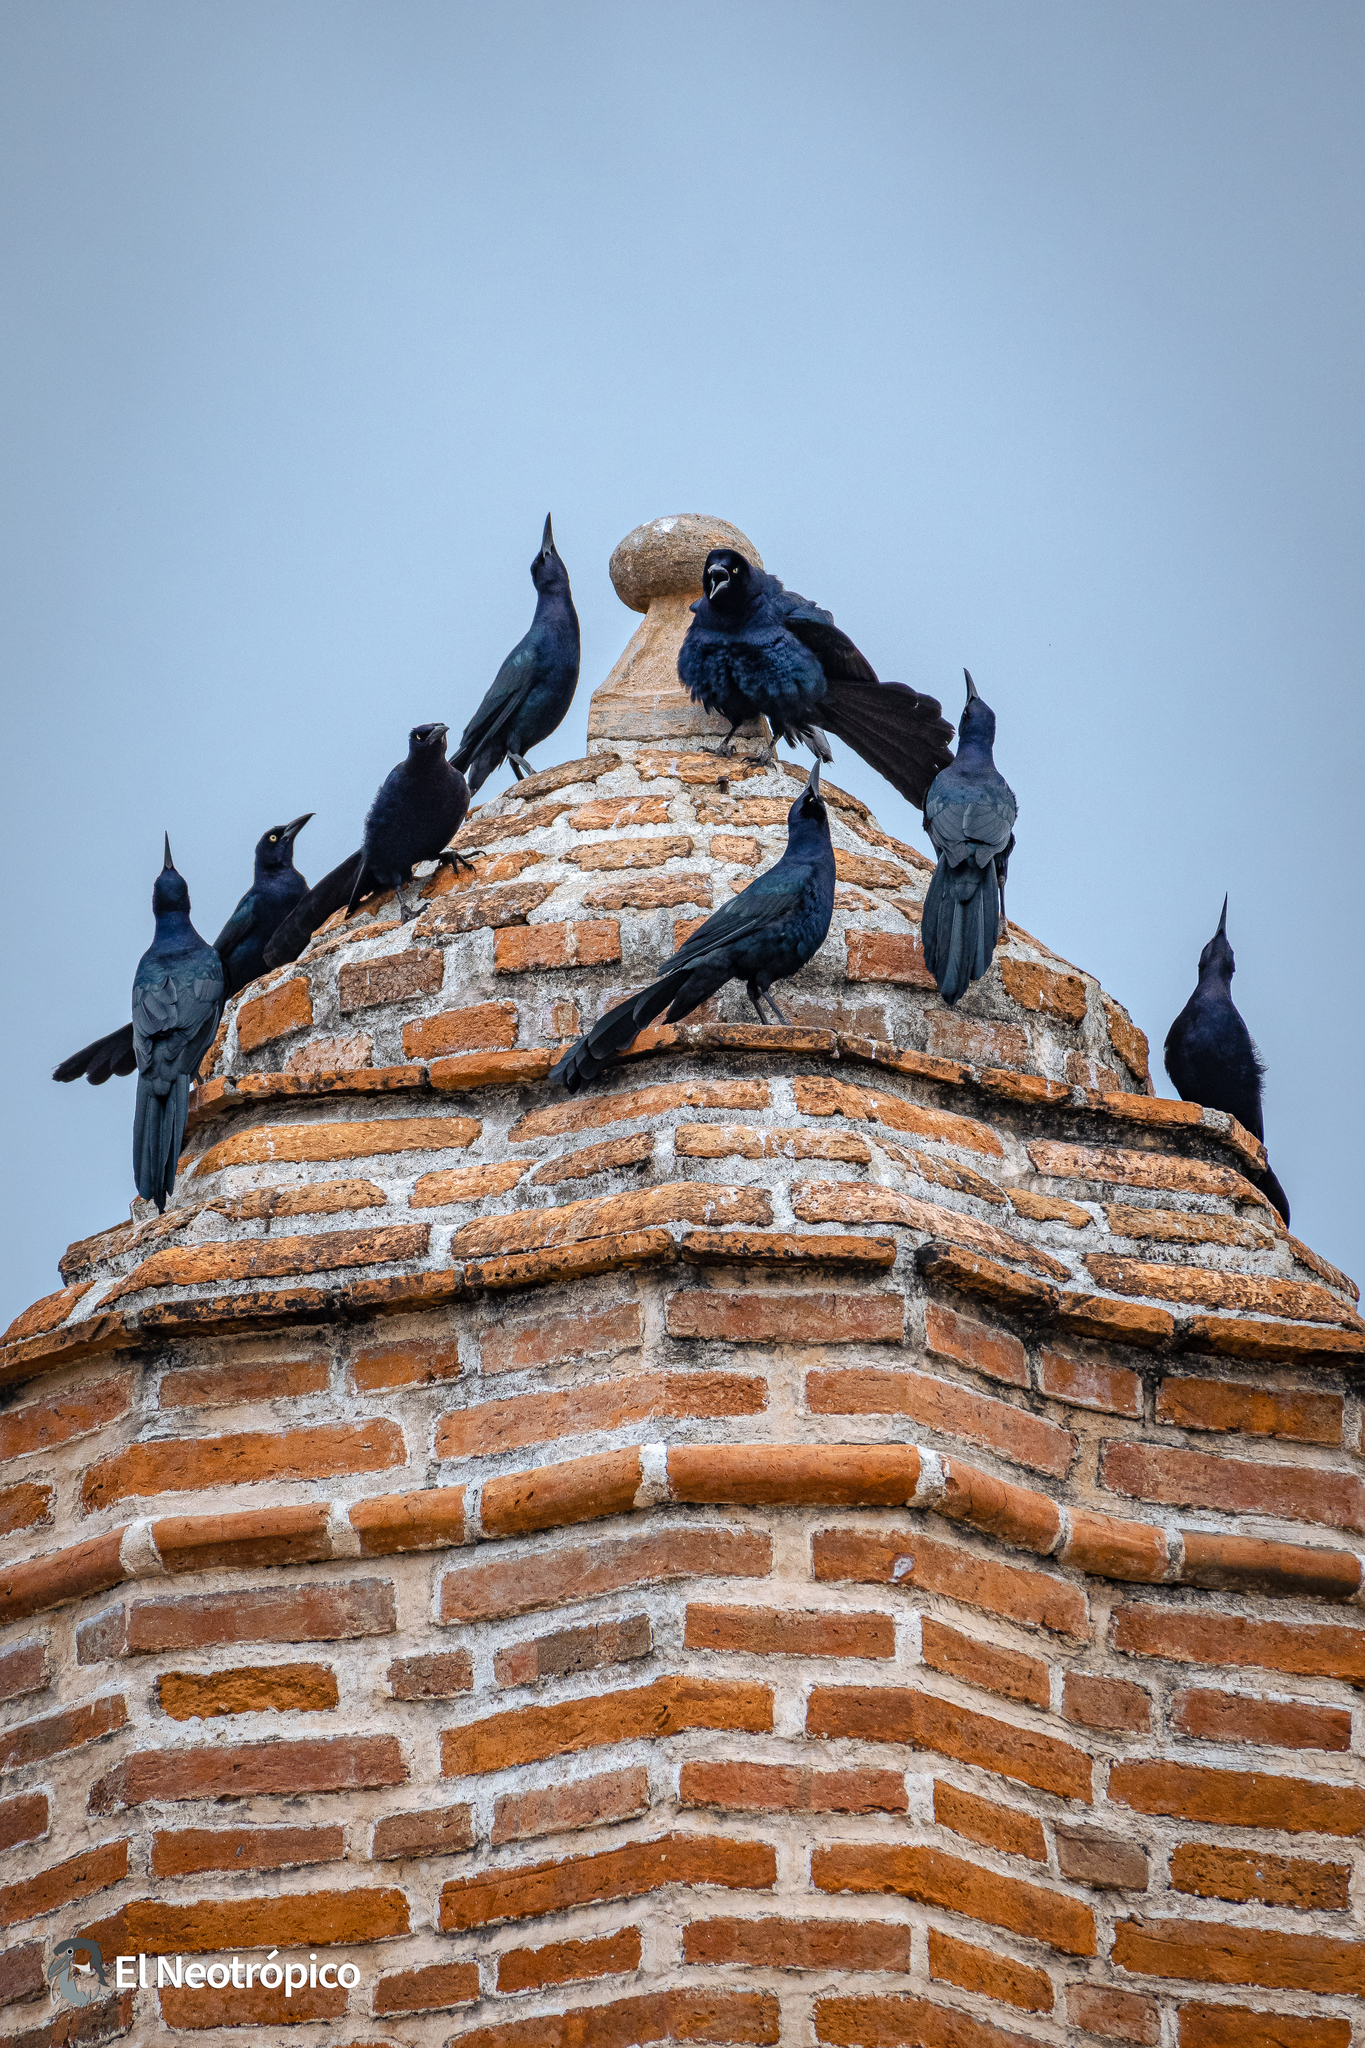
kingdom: Animalia
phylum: Chordata
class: Aves
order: Passeriformes
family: Icteridae
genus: Quiscalus
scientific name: Quiscalus mexicanus
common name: Great-tailed grackle
